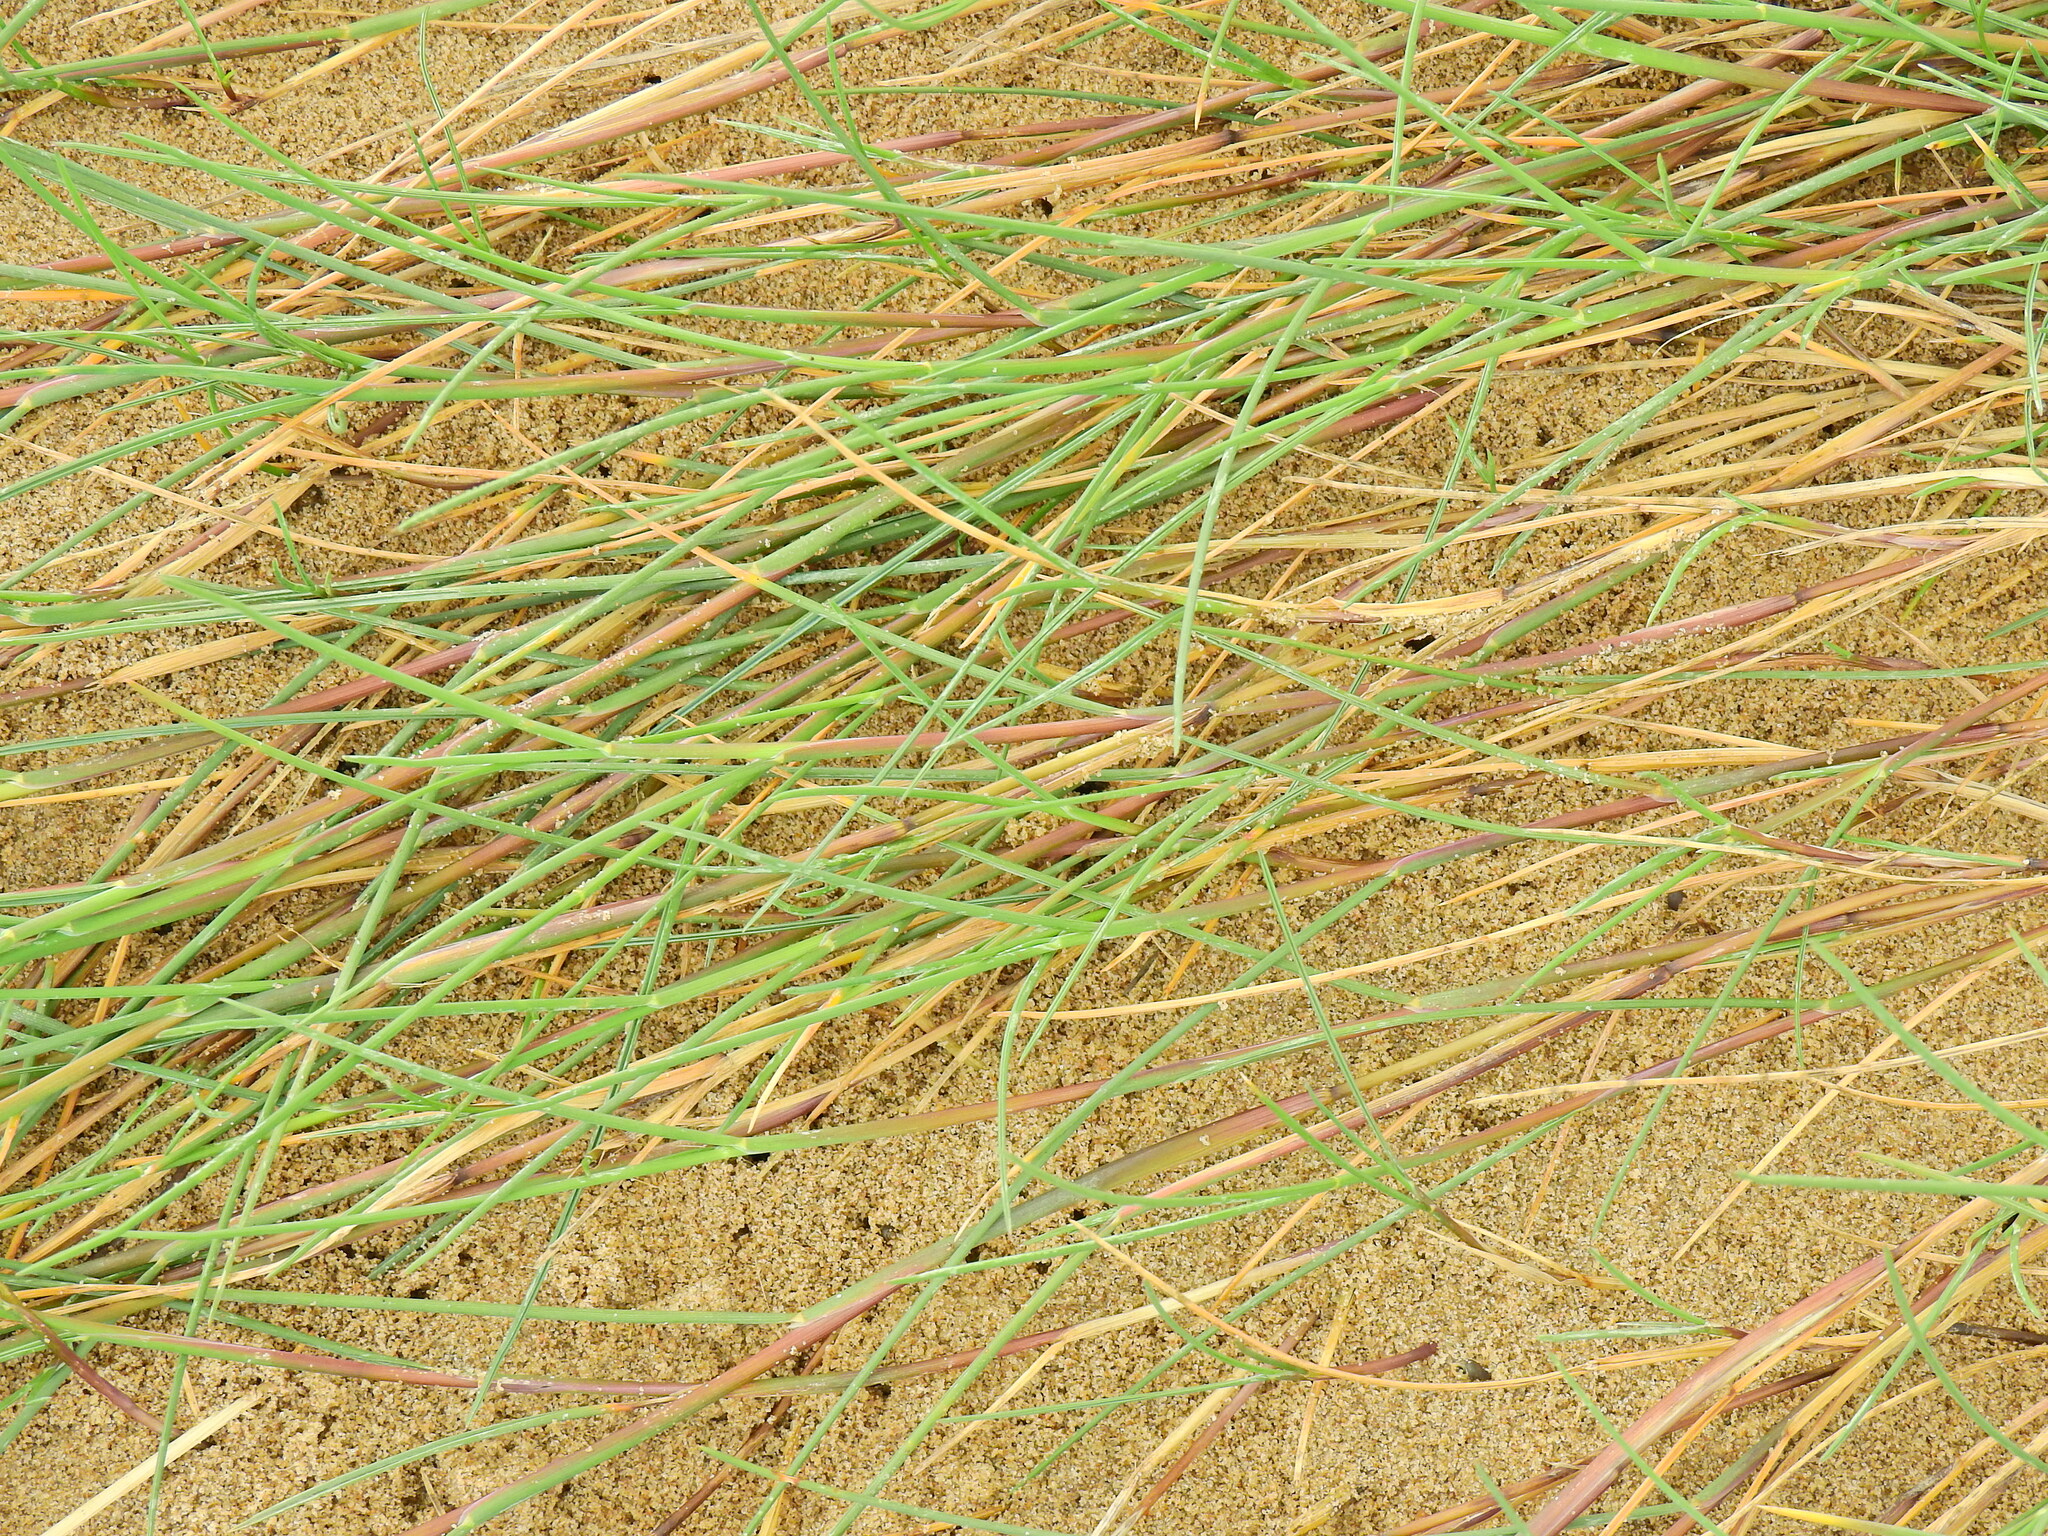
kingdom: Plantae
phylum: Tracheophyta
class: Liliopsida
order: Poales
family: Poaceae
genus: Agrostis
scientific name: Agrostis stolonifera
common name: Creeping bentgrass
